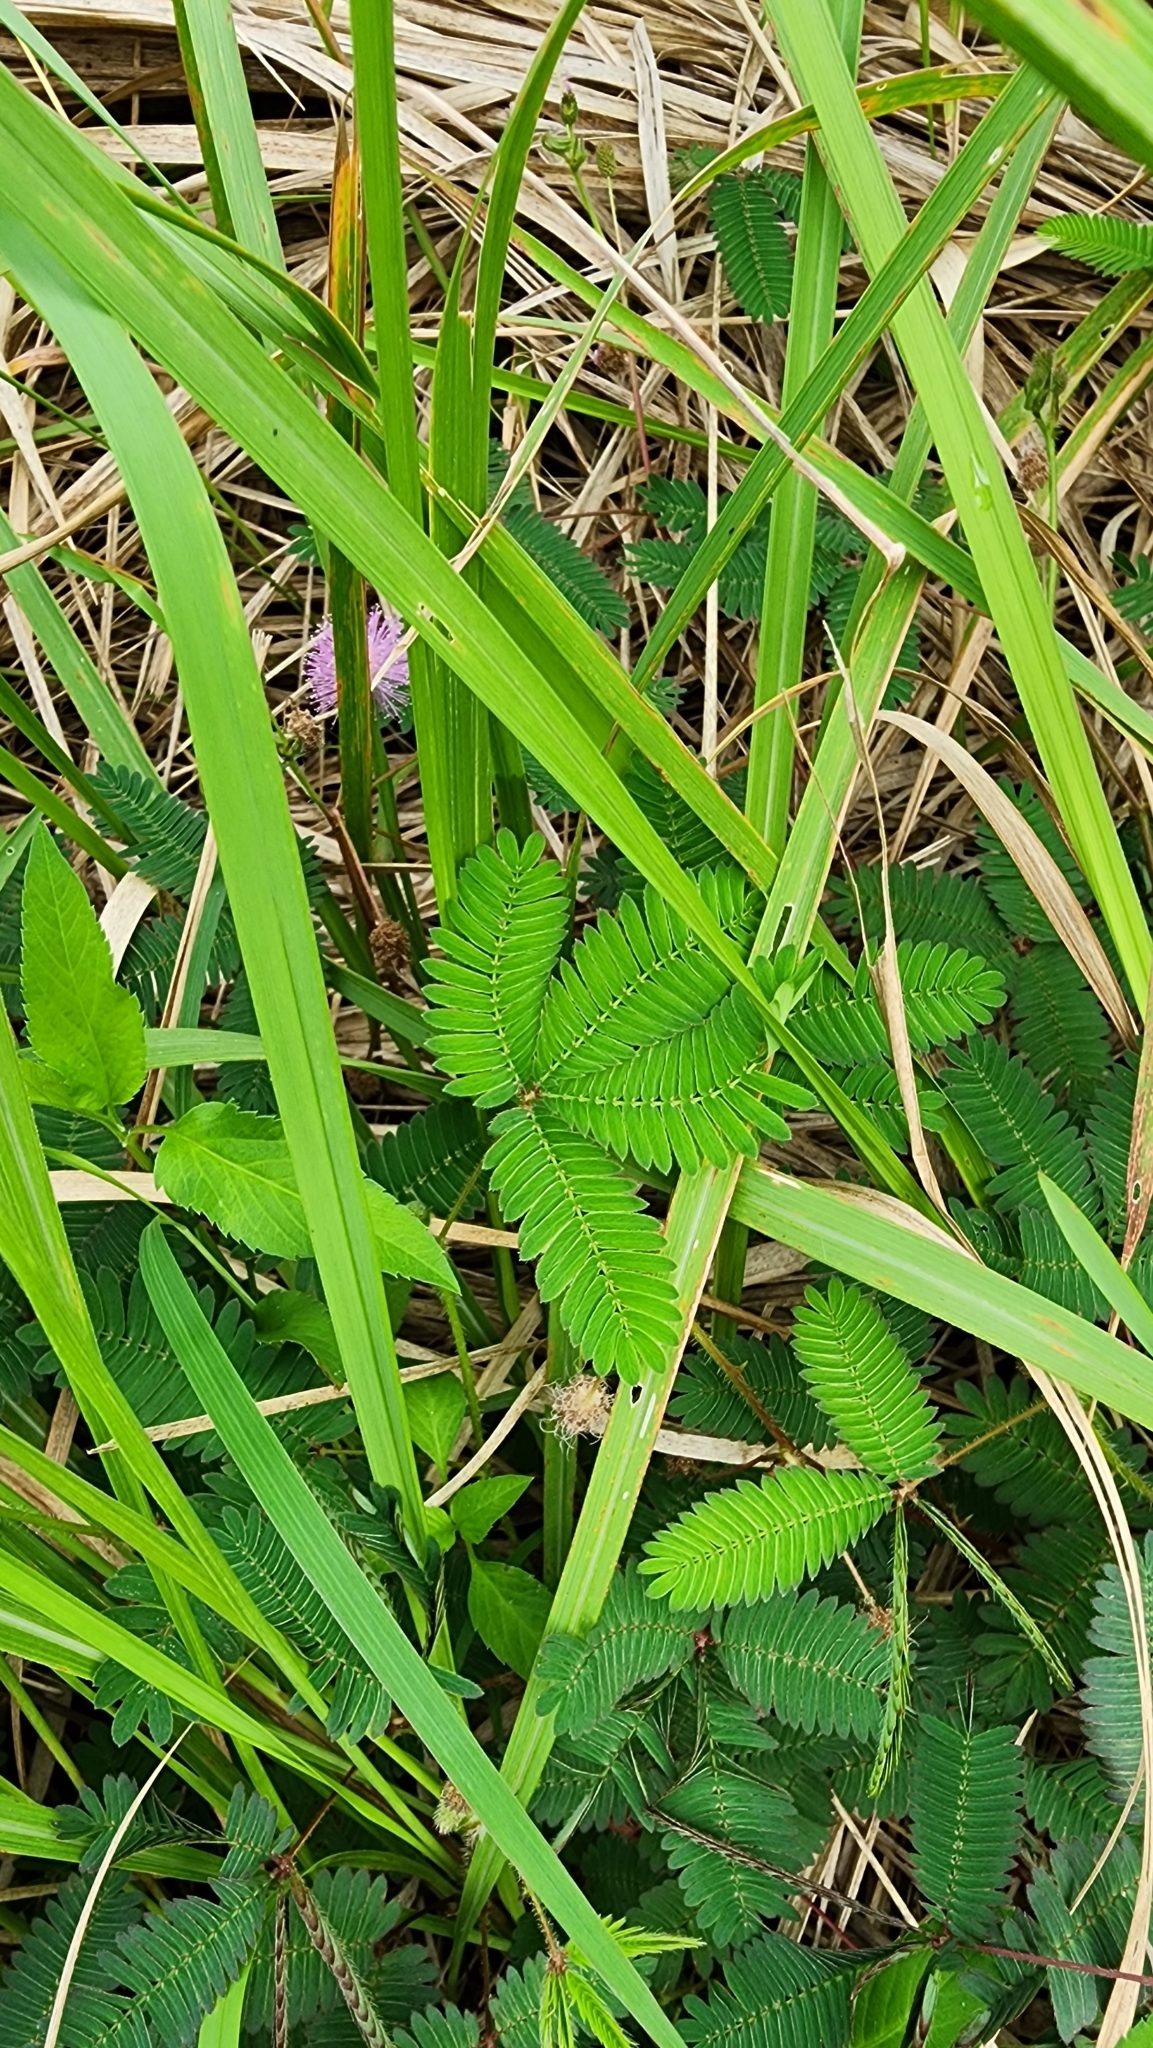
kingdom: Plantae
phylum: Tracheophyta
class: Magnoliopsida
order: Fabales
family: Fabaceae
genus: Mimosa
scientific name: Mimosa pudica
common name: Sensitive plant
